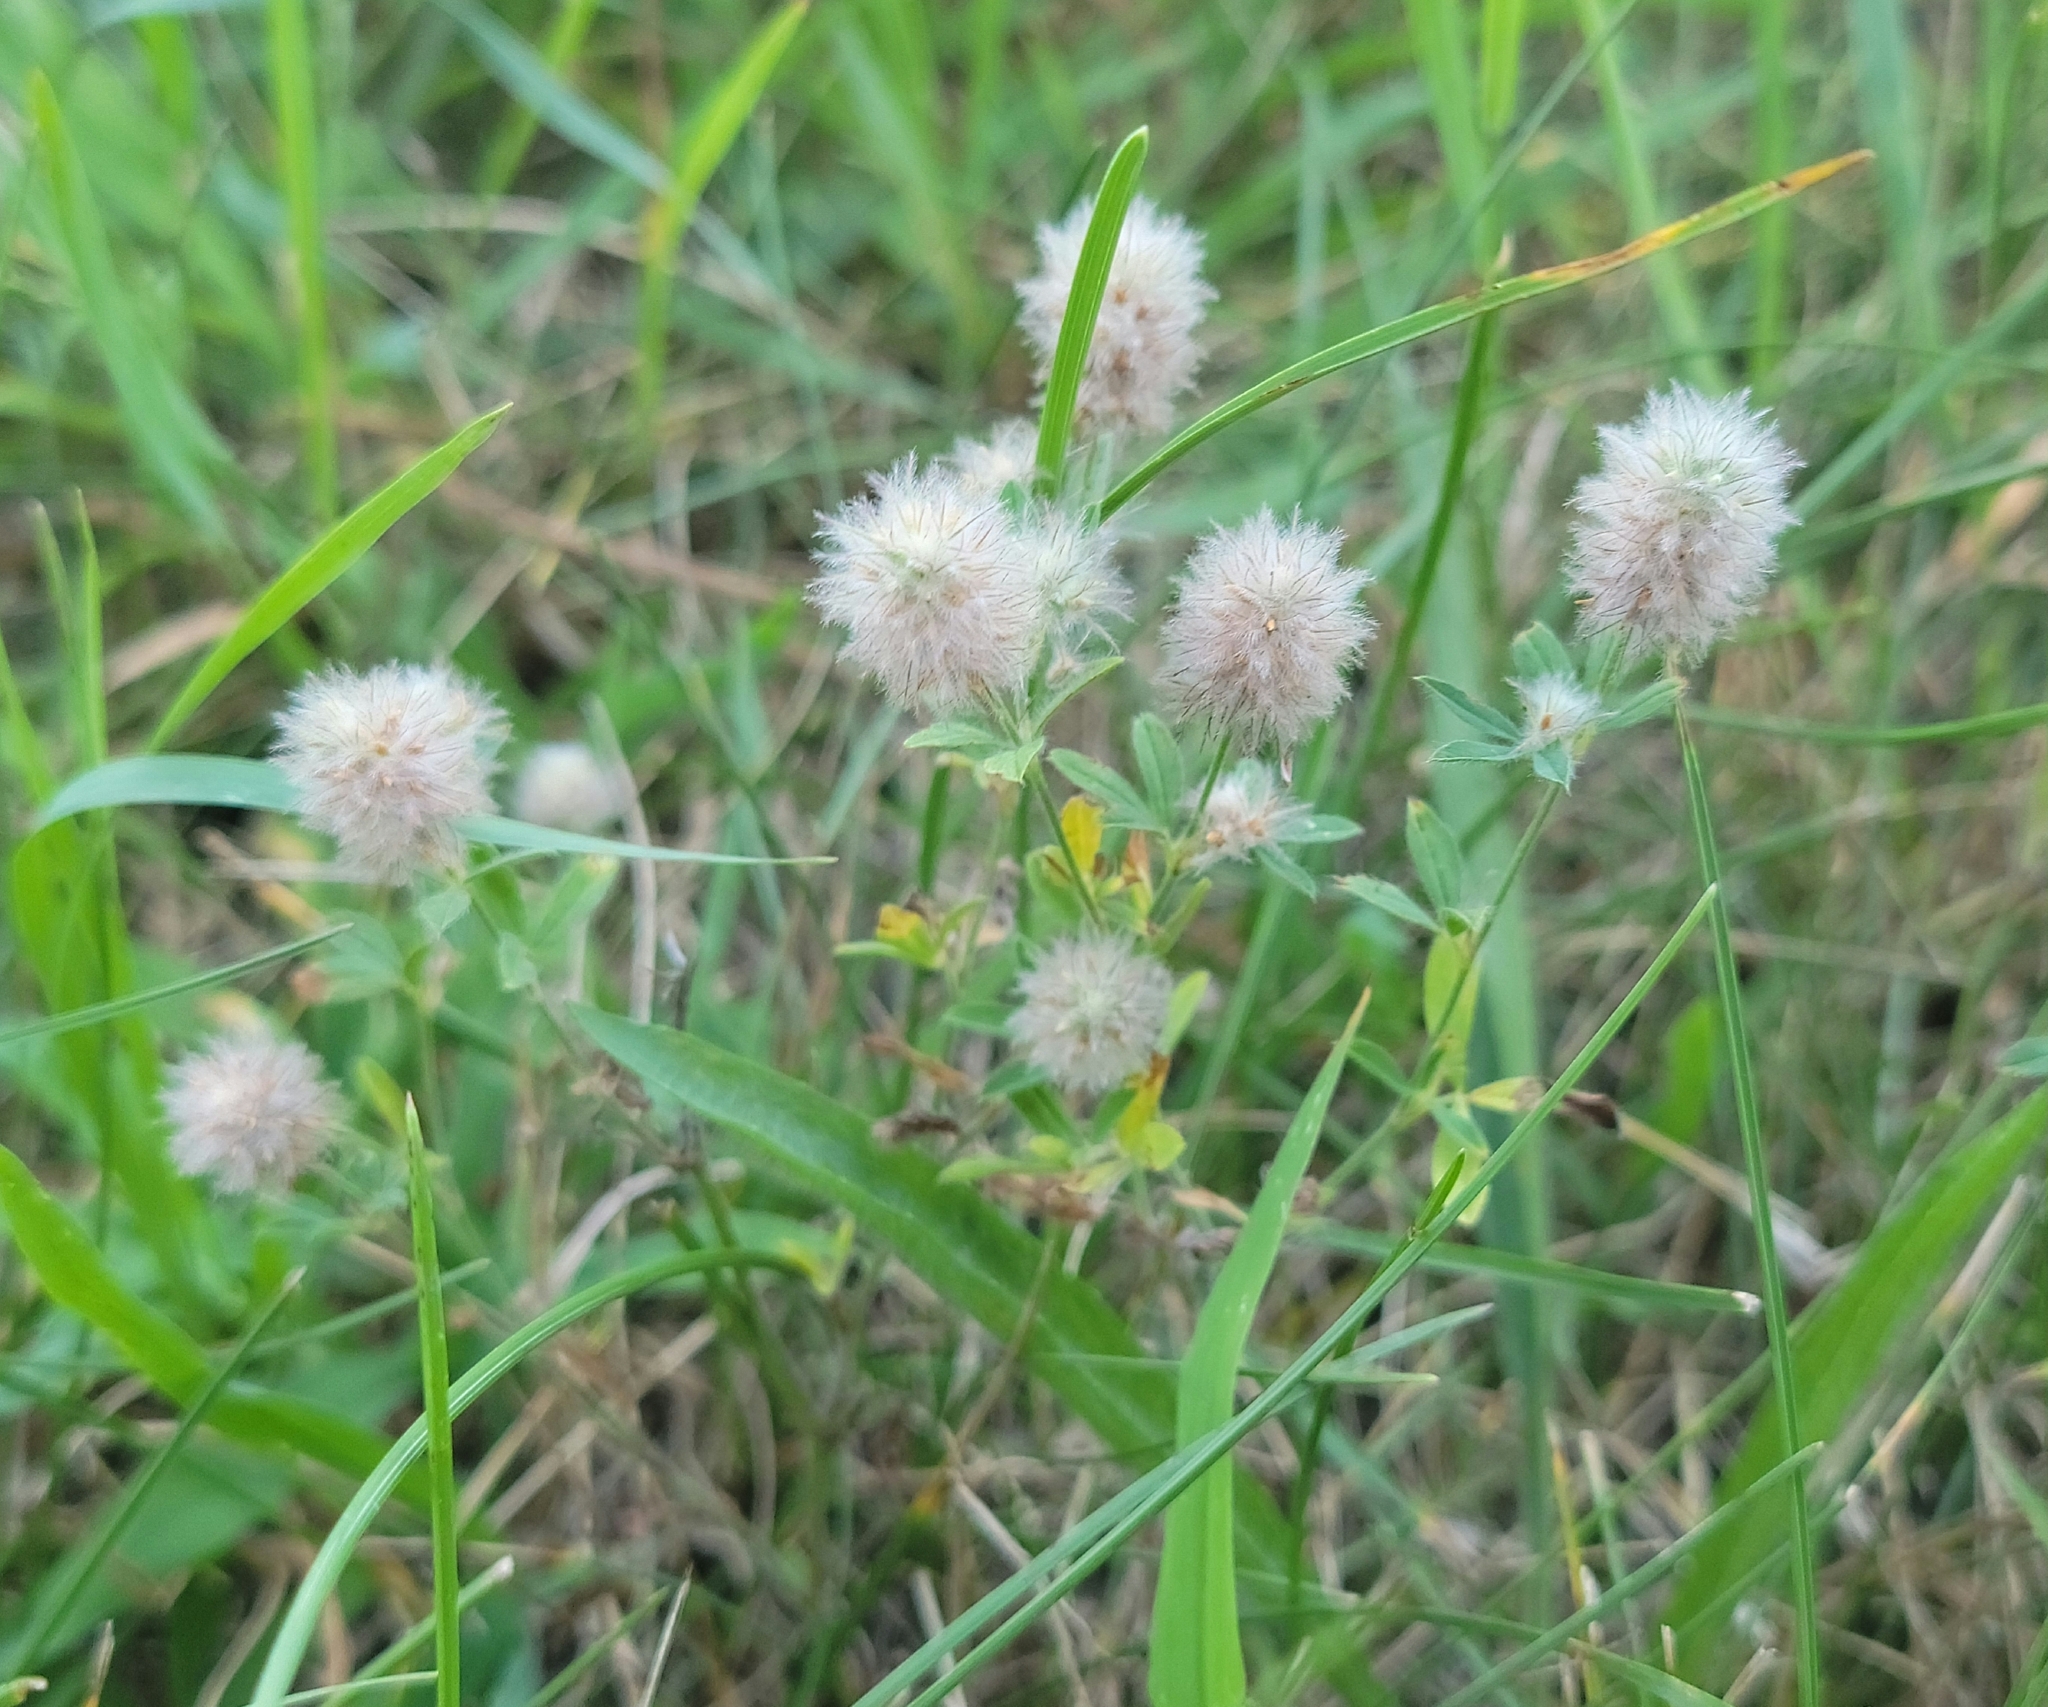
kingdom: Plantae
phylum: Tracheophyta
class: Magnoliopsida
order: Fabales
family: Fabaceae
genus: Trifolium
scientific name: Trifolium arvense
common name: Hare's-foot clover
